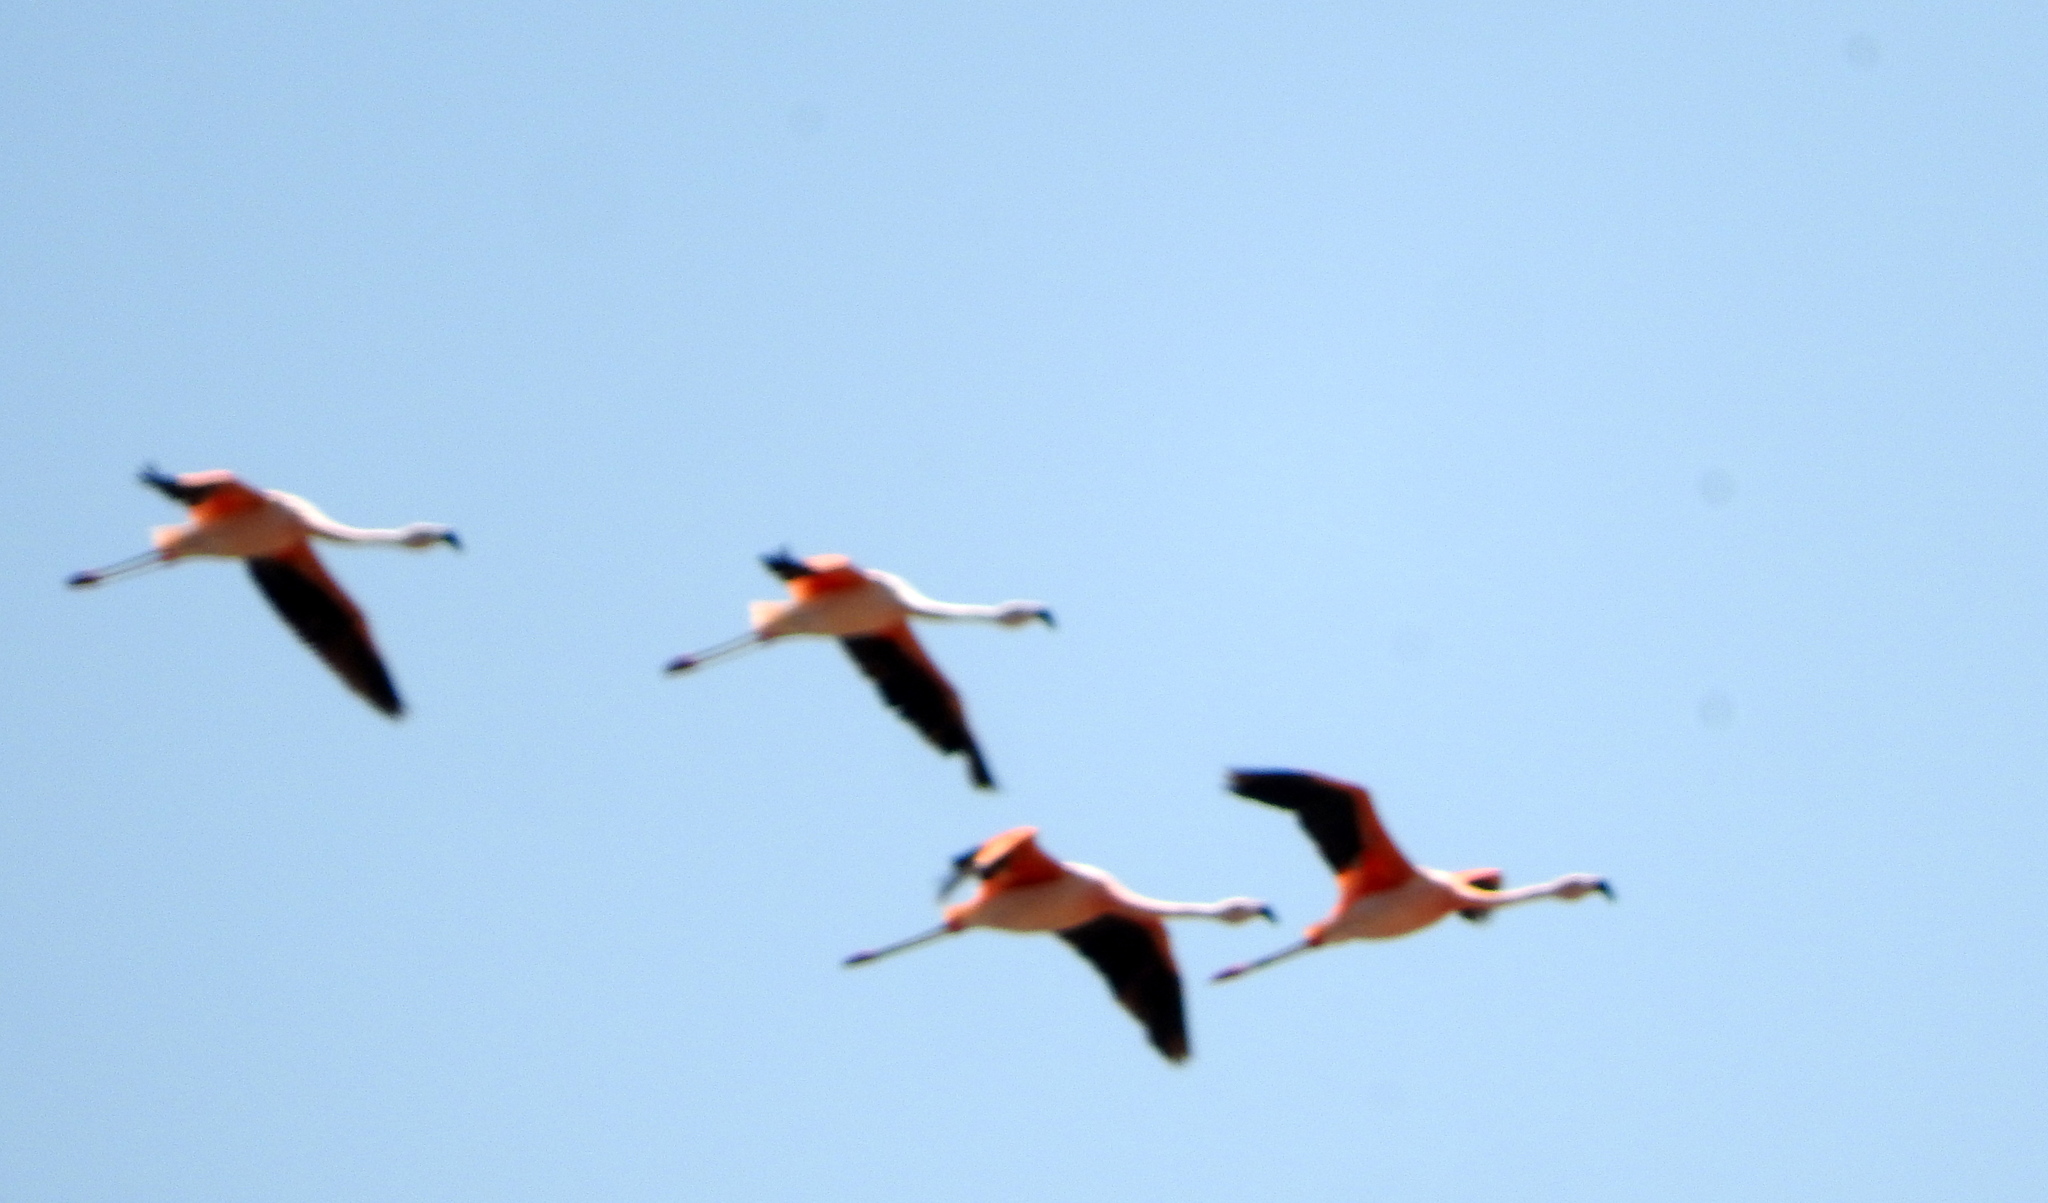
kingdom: Animalia
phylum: Chordata
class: Aves
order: Phoenicopteriformes
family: Phoenicopteridae
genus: Phoenicopterus
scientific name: Phoenicopterus chilensis
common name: Chilean flamingo
